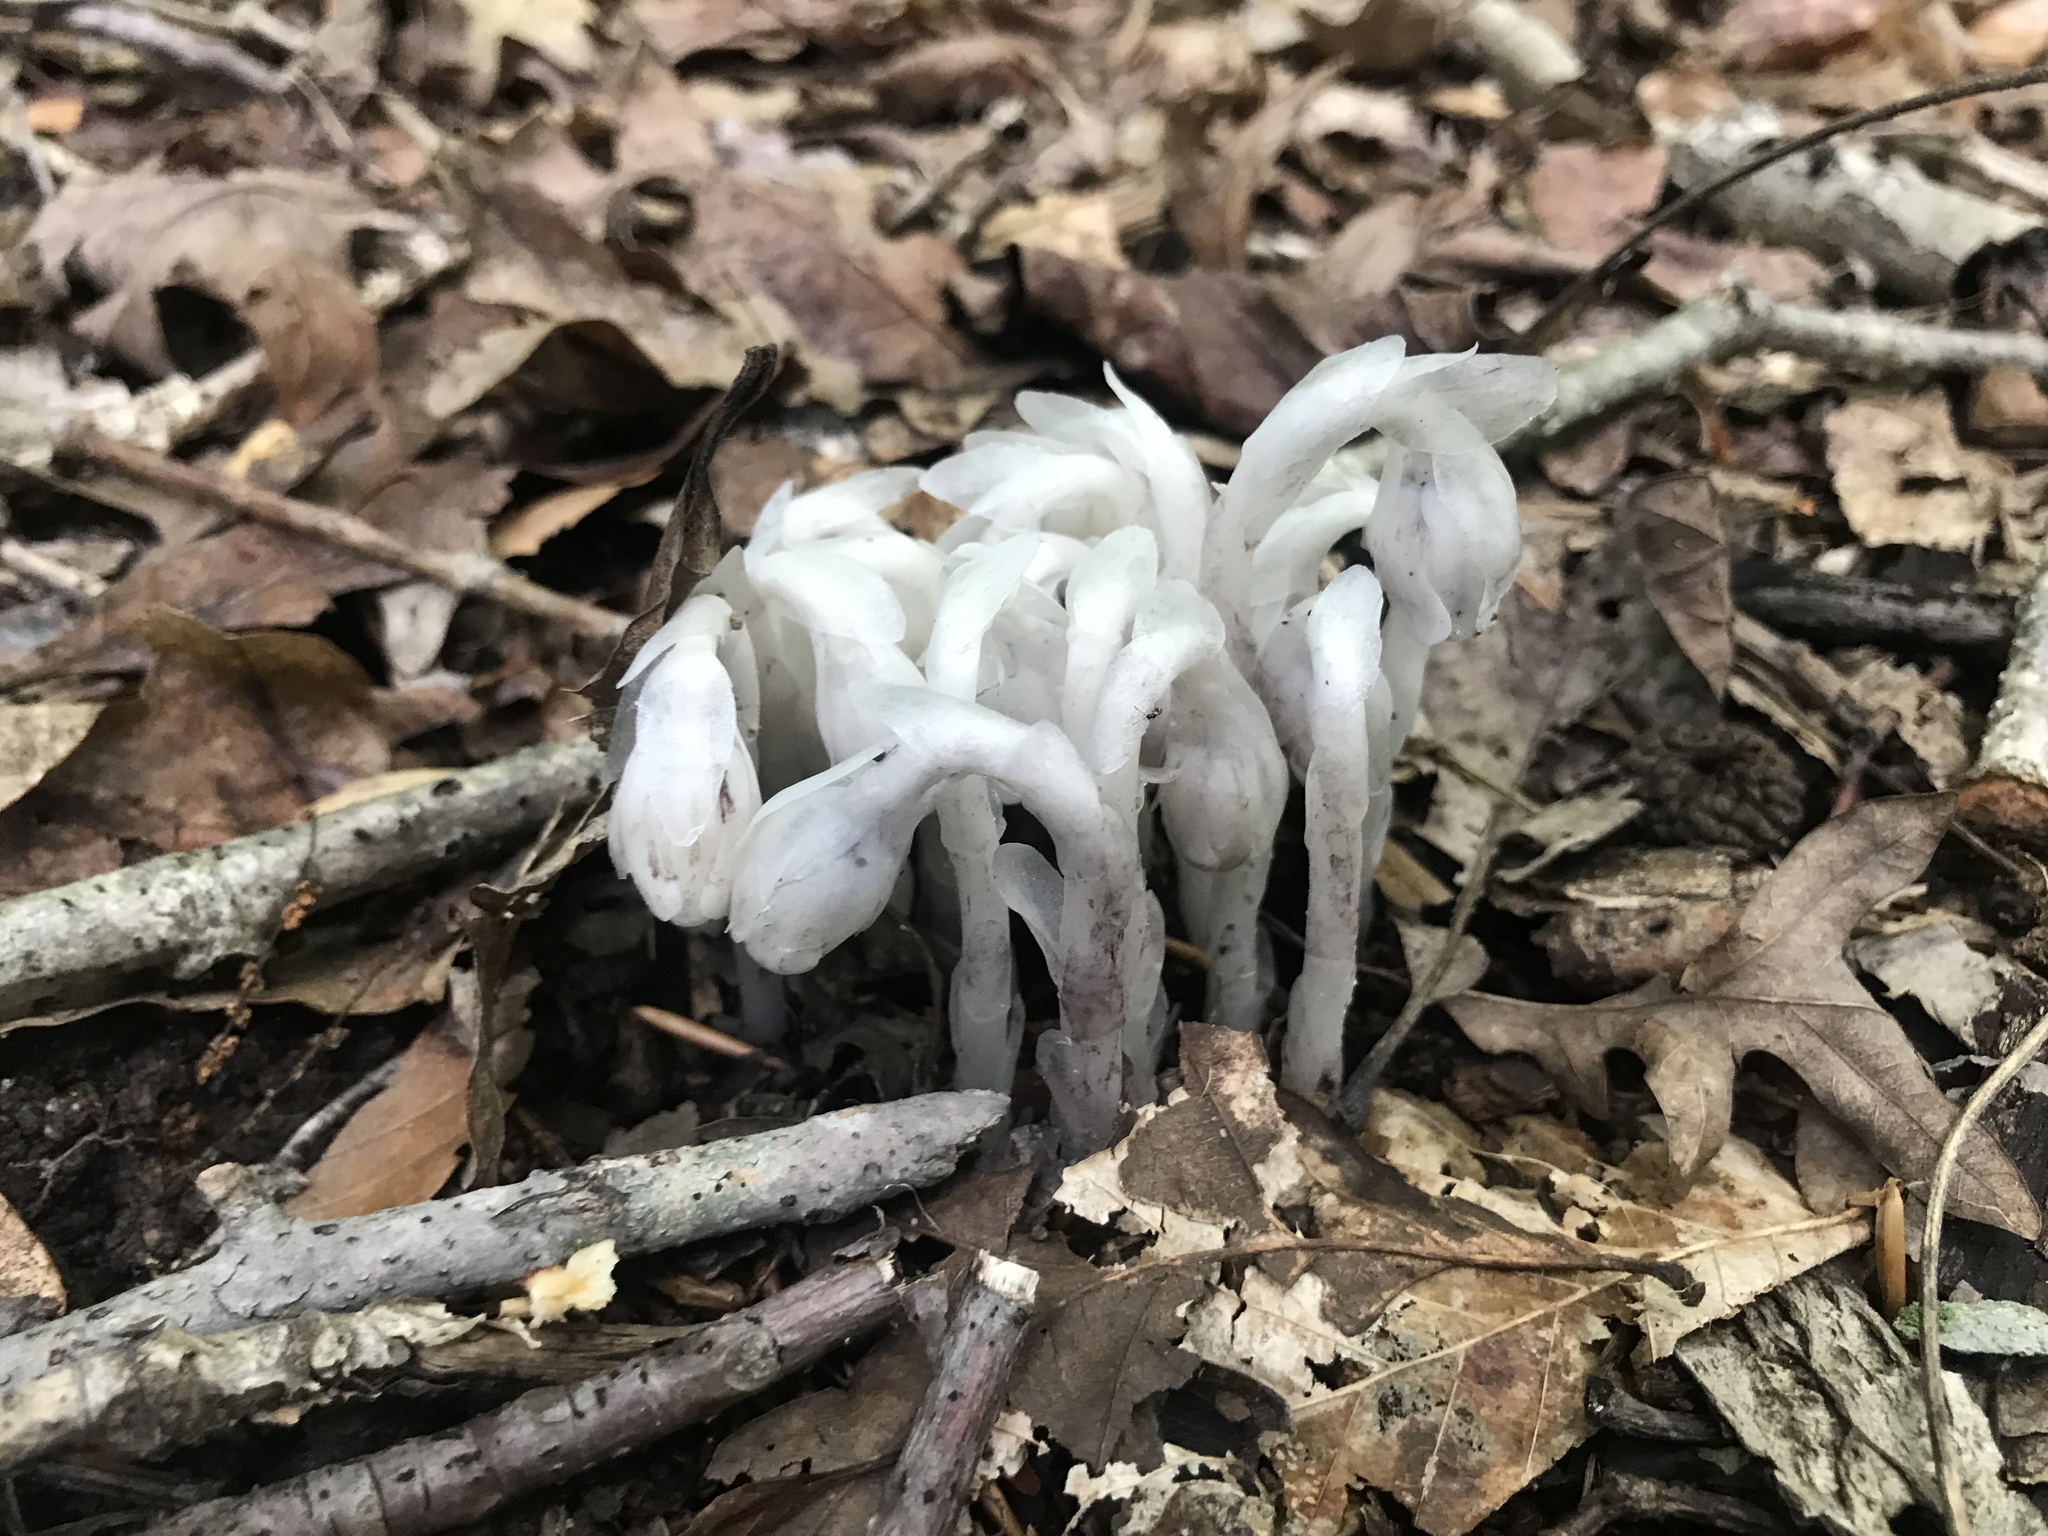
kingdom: Plantae
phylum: Tracheophyta
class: Magnoliopsida
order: Ericales
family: Ericaceae
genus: Monotropa
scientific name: Monotropa uniflora
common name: Convulsion root
